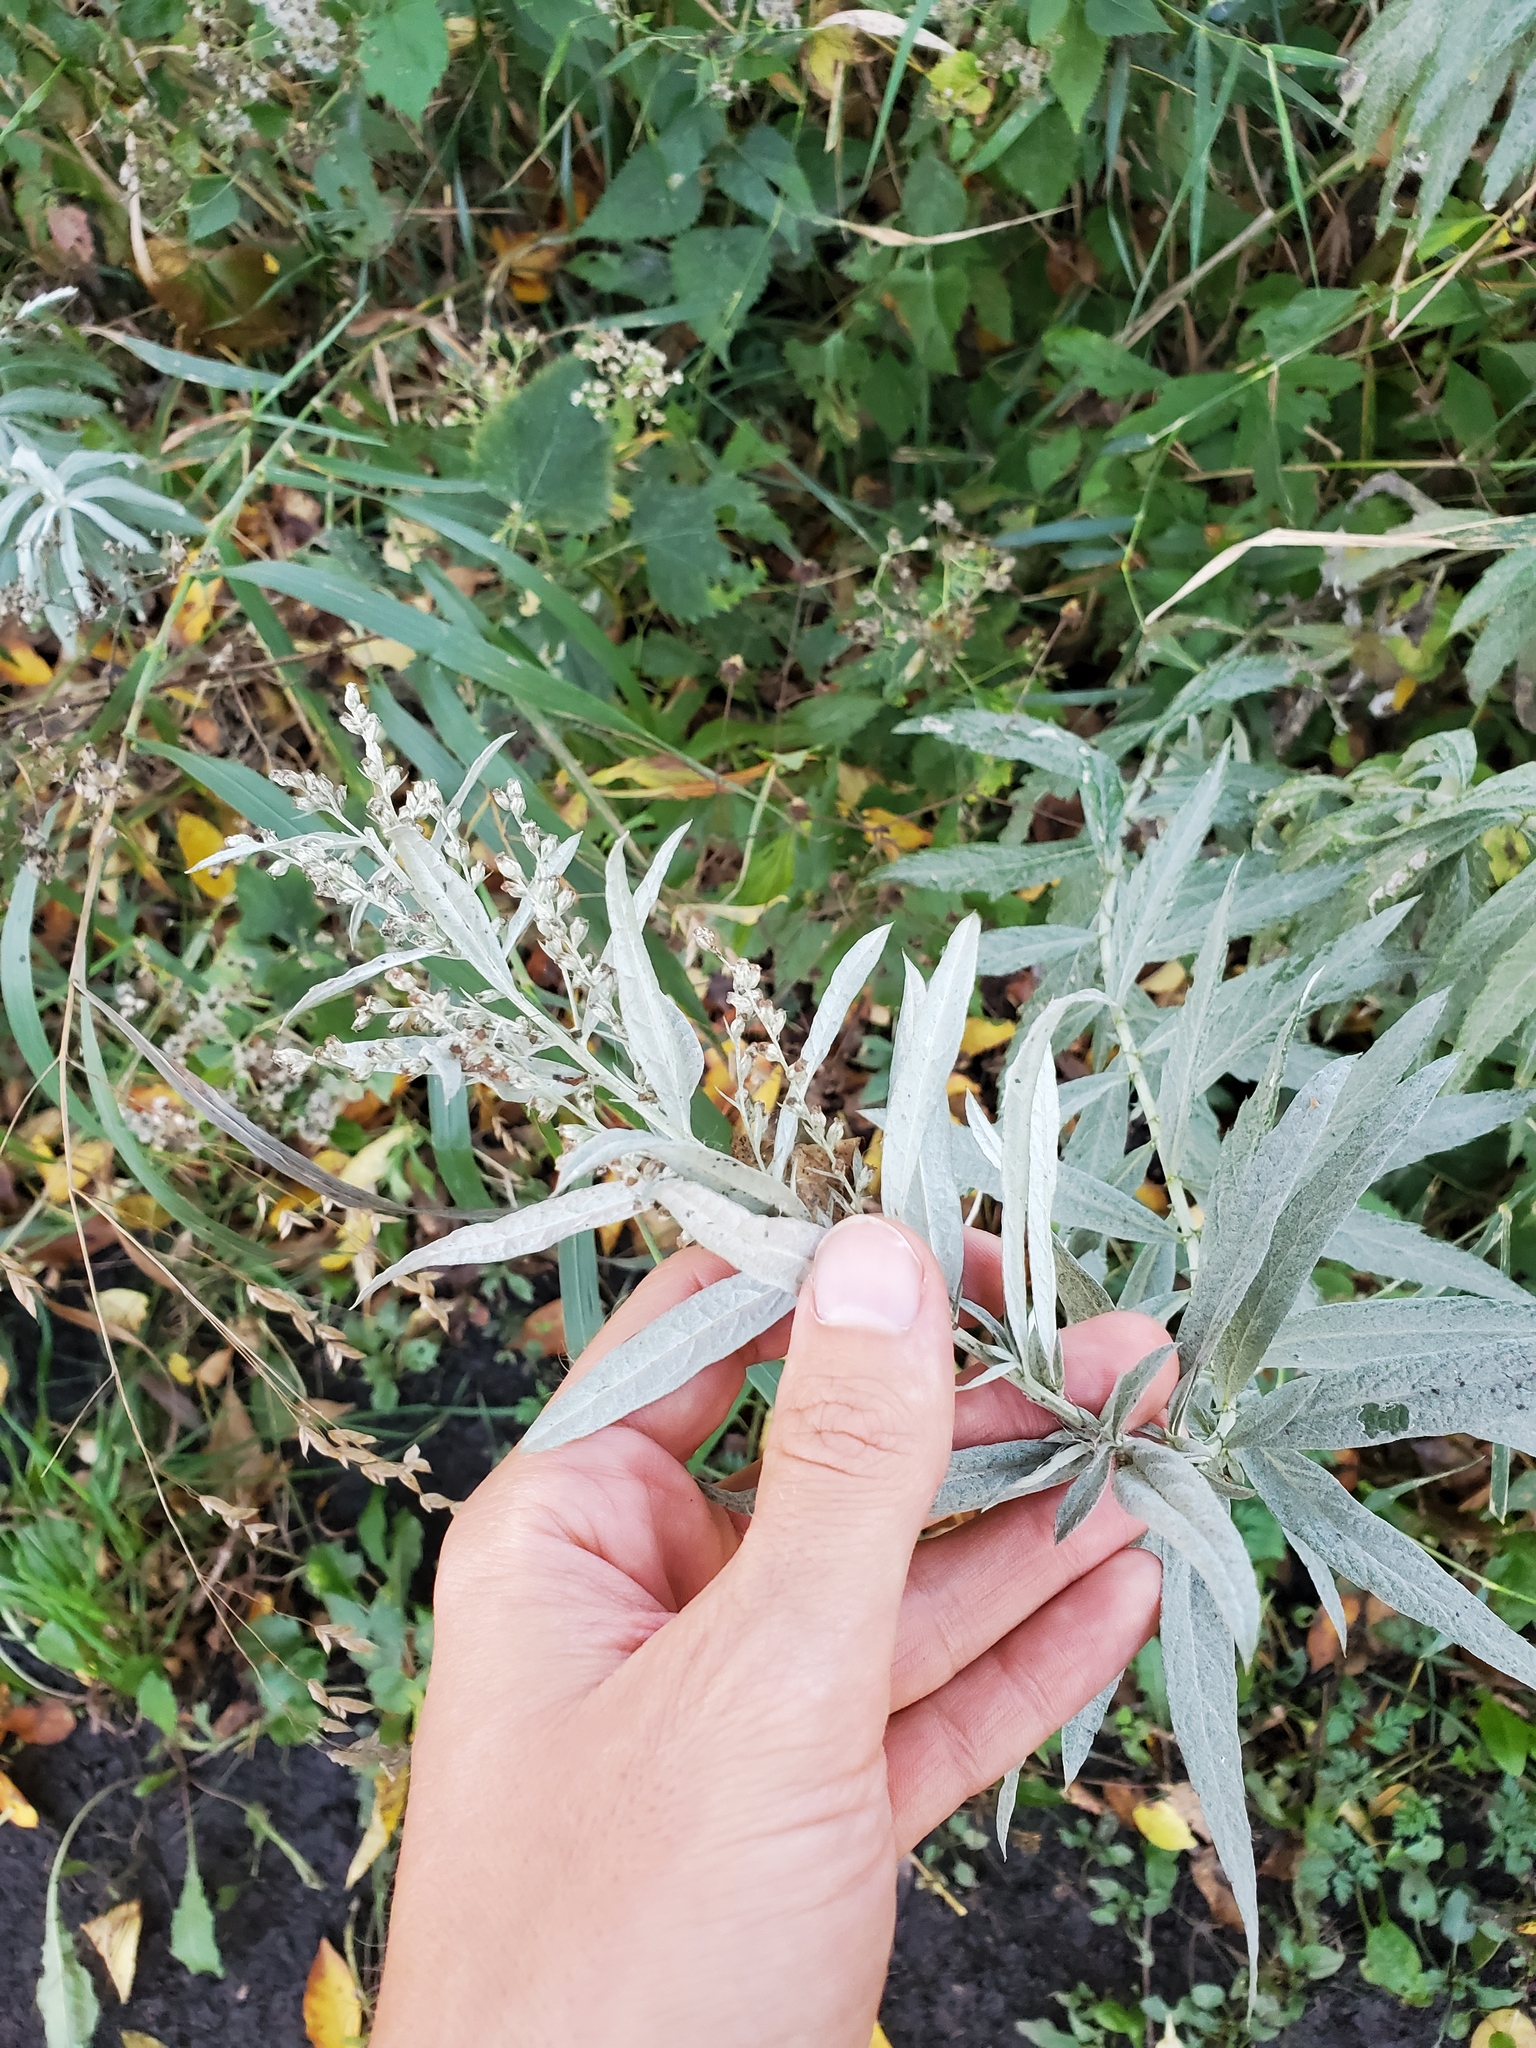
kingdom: Plantae
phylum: Tracheophyta
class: Magnoliopsida
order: Asterales
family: Asteraceae
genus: Artemisia
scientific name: Artemisia ludoviciana
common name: Western mugwort
